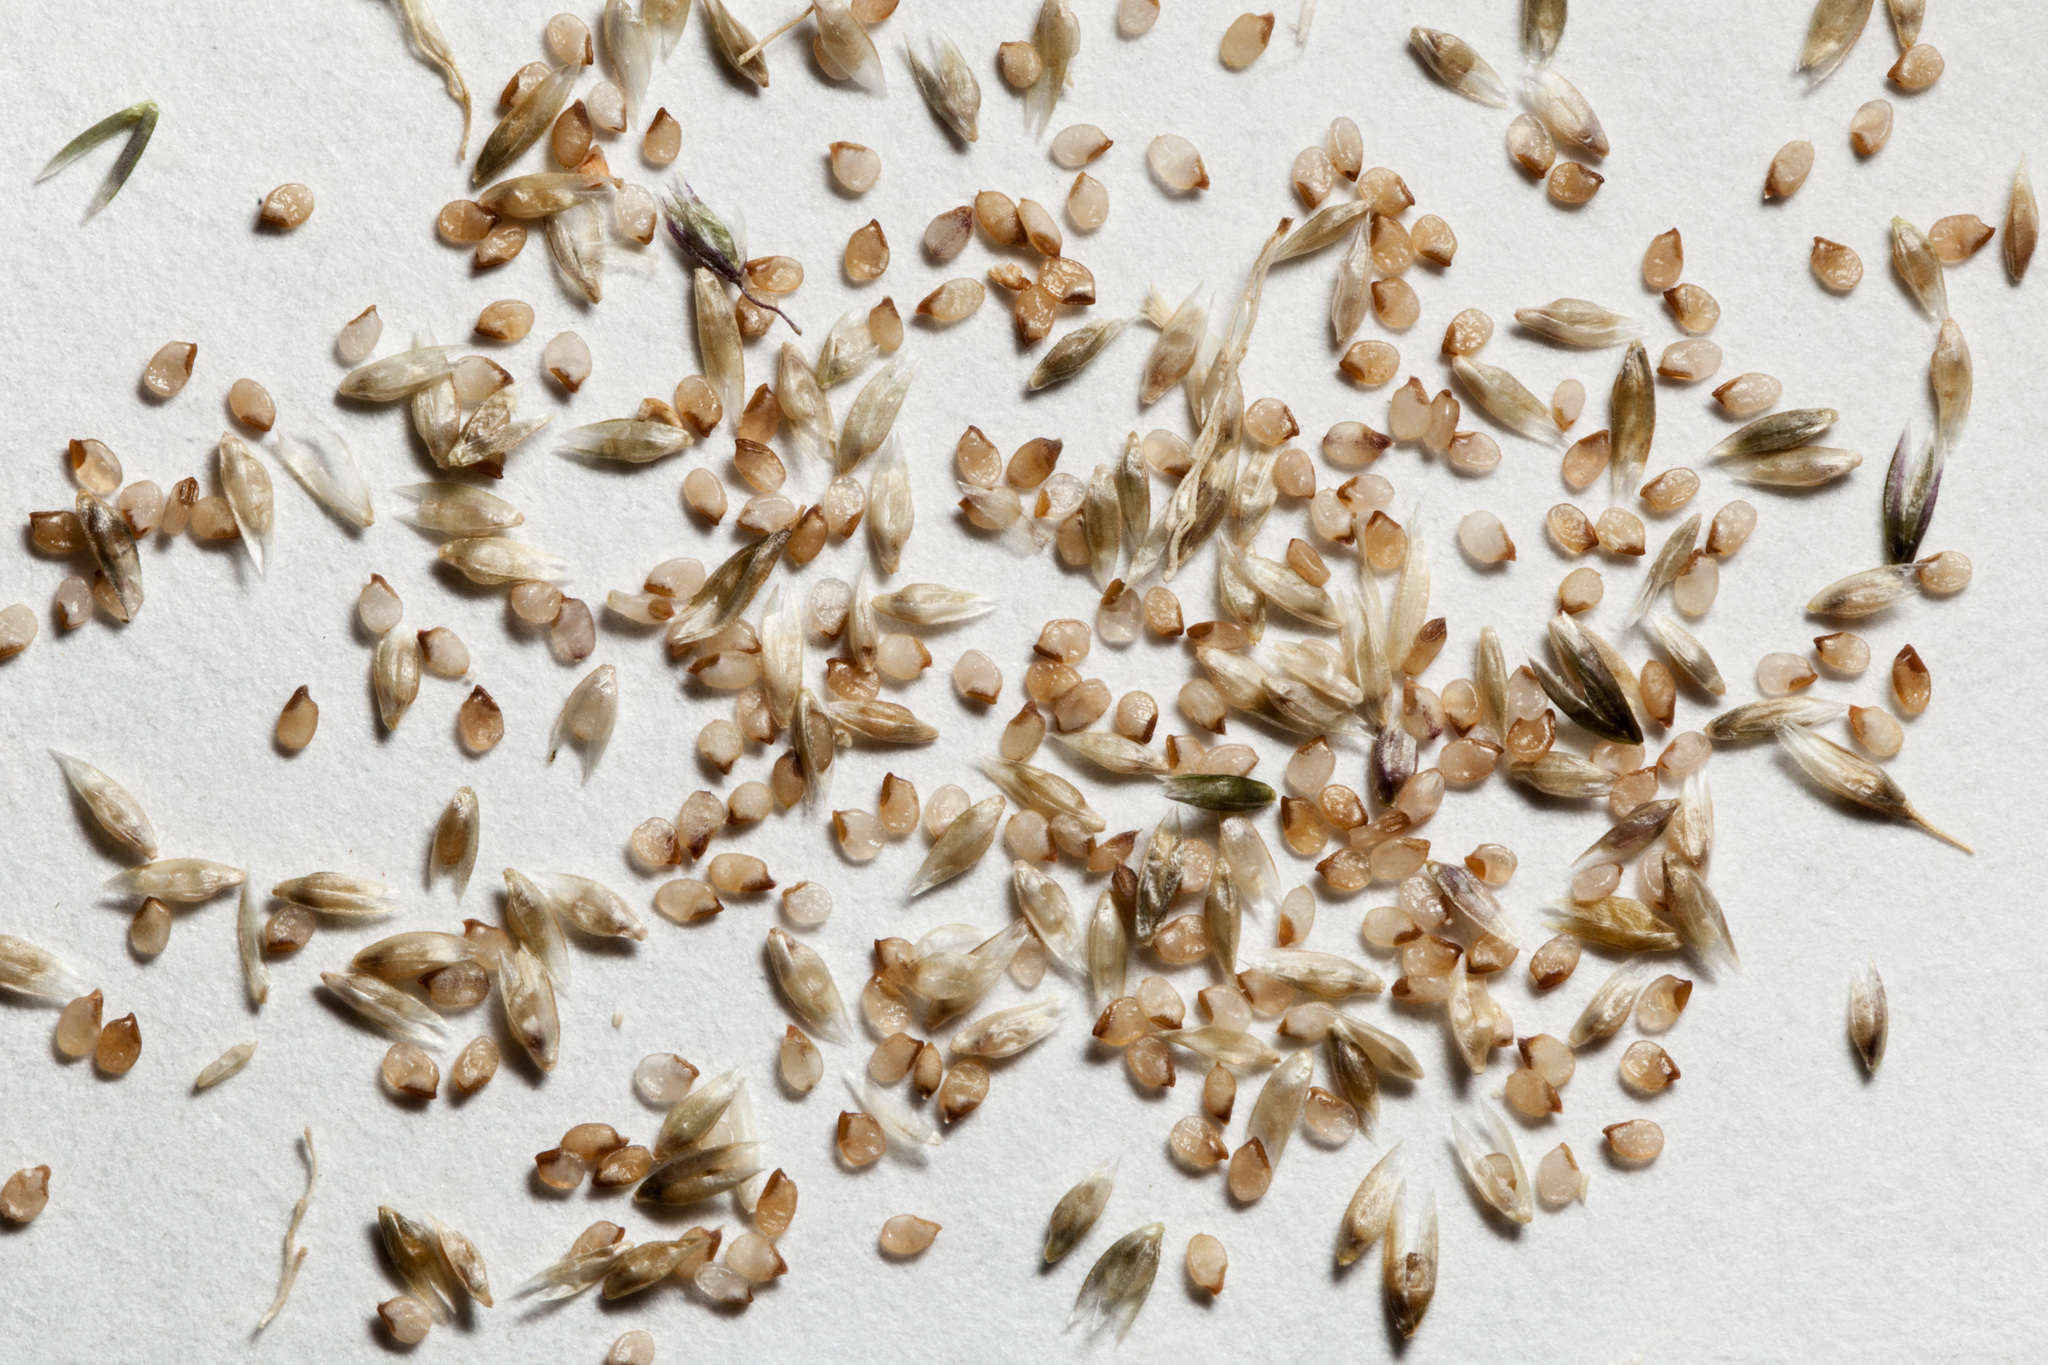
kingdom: Plantae
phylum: Tracheophyta
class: Liliopsida
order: Poales
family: Poaceae
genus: Sporobolus
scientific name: Sporobolus flexuosus
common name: Mesa dropseed
